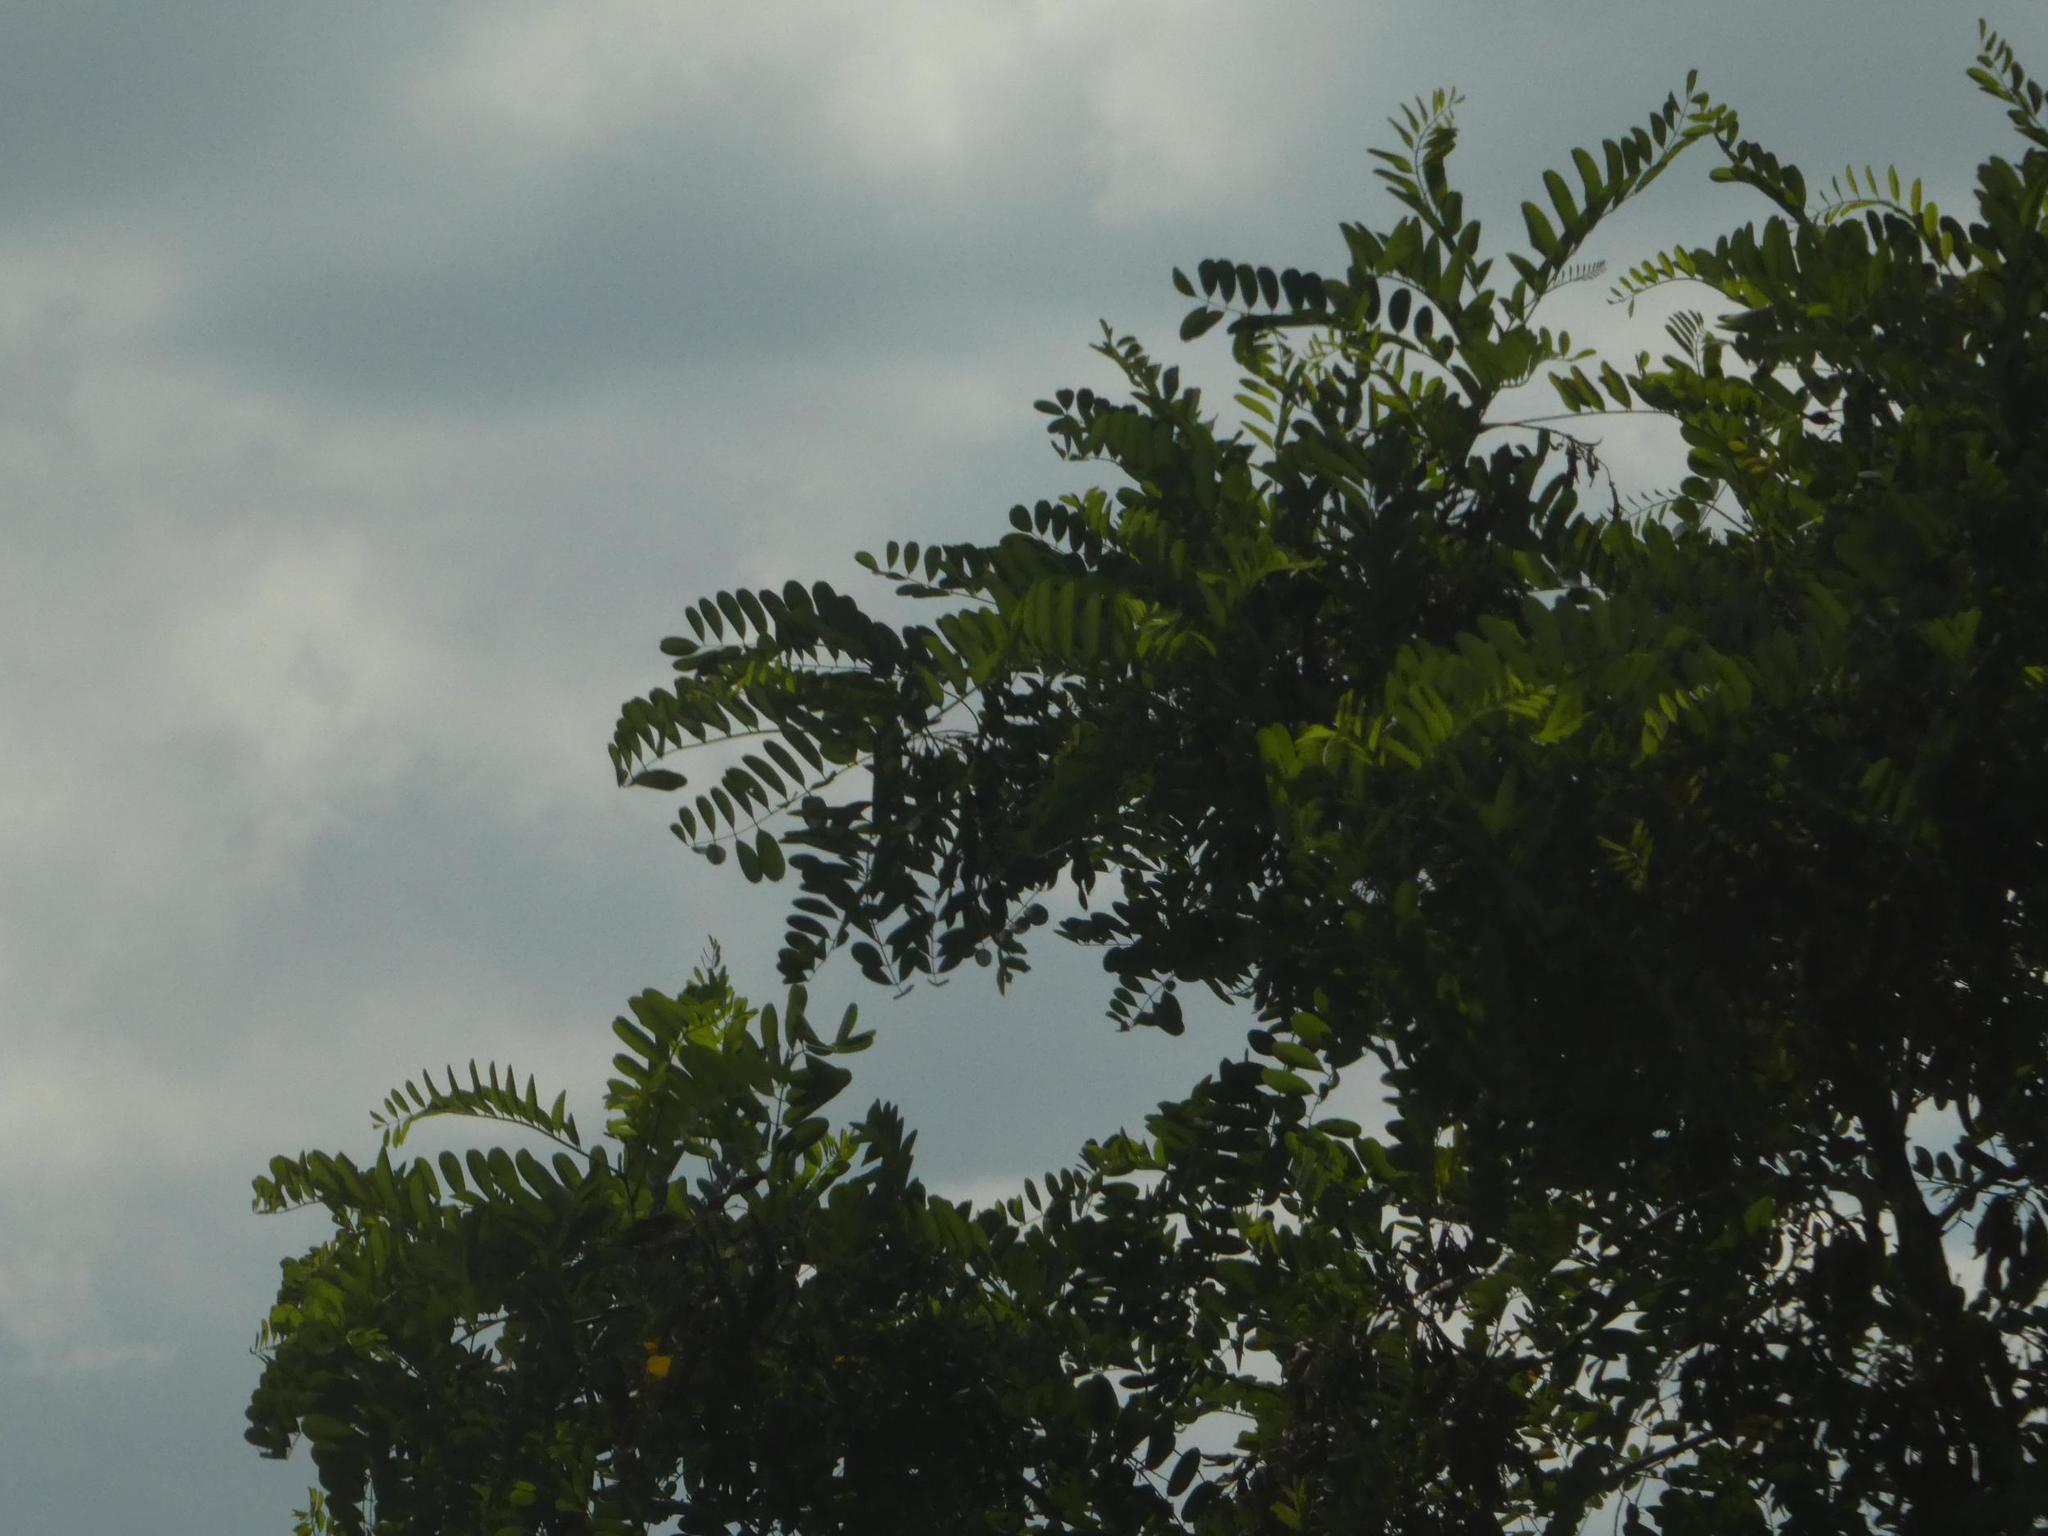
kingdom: Plantae
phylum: Tracheophyta
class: Magnoliopsida
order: Fabales
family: Fabaceae
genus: Robinia
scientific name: Robinia pseudoacacia
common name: Black locust
